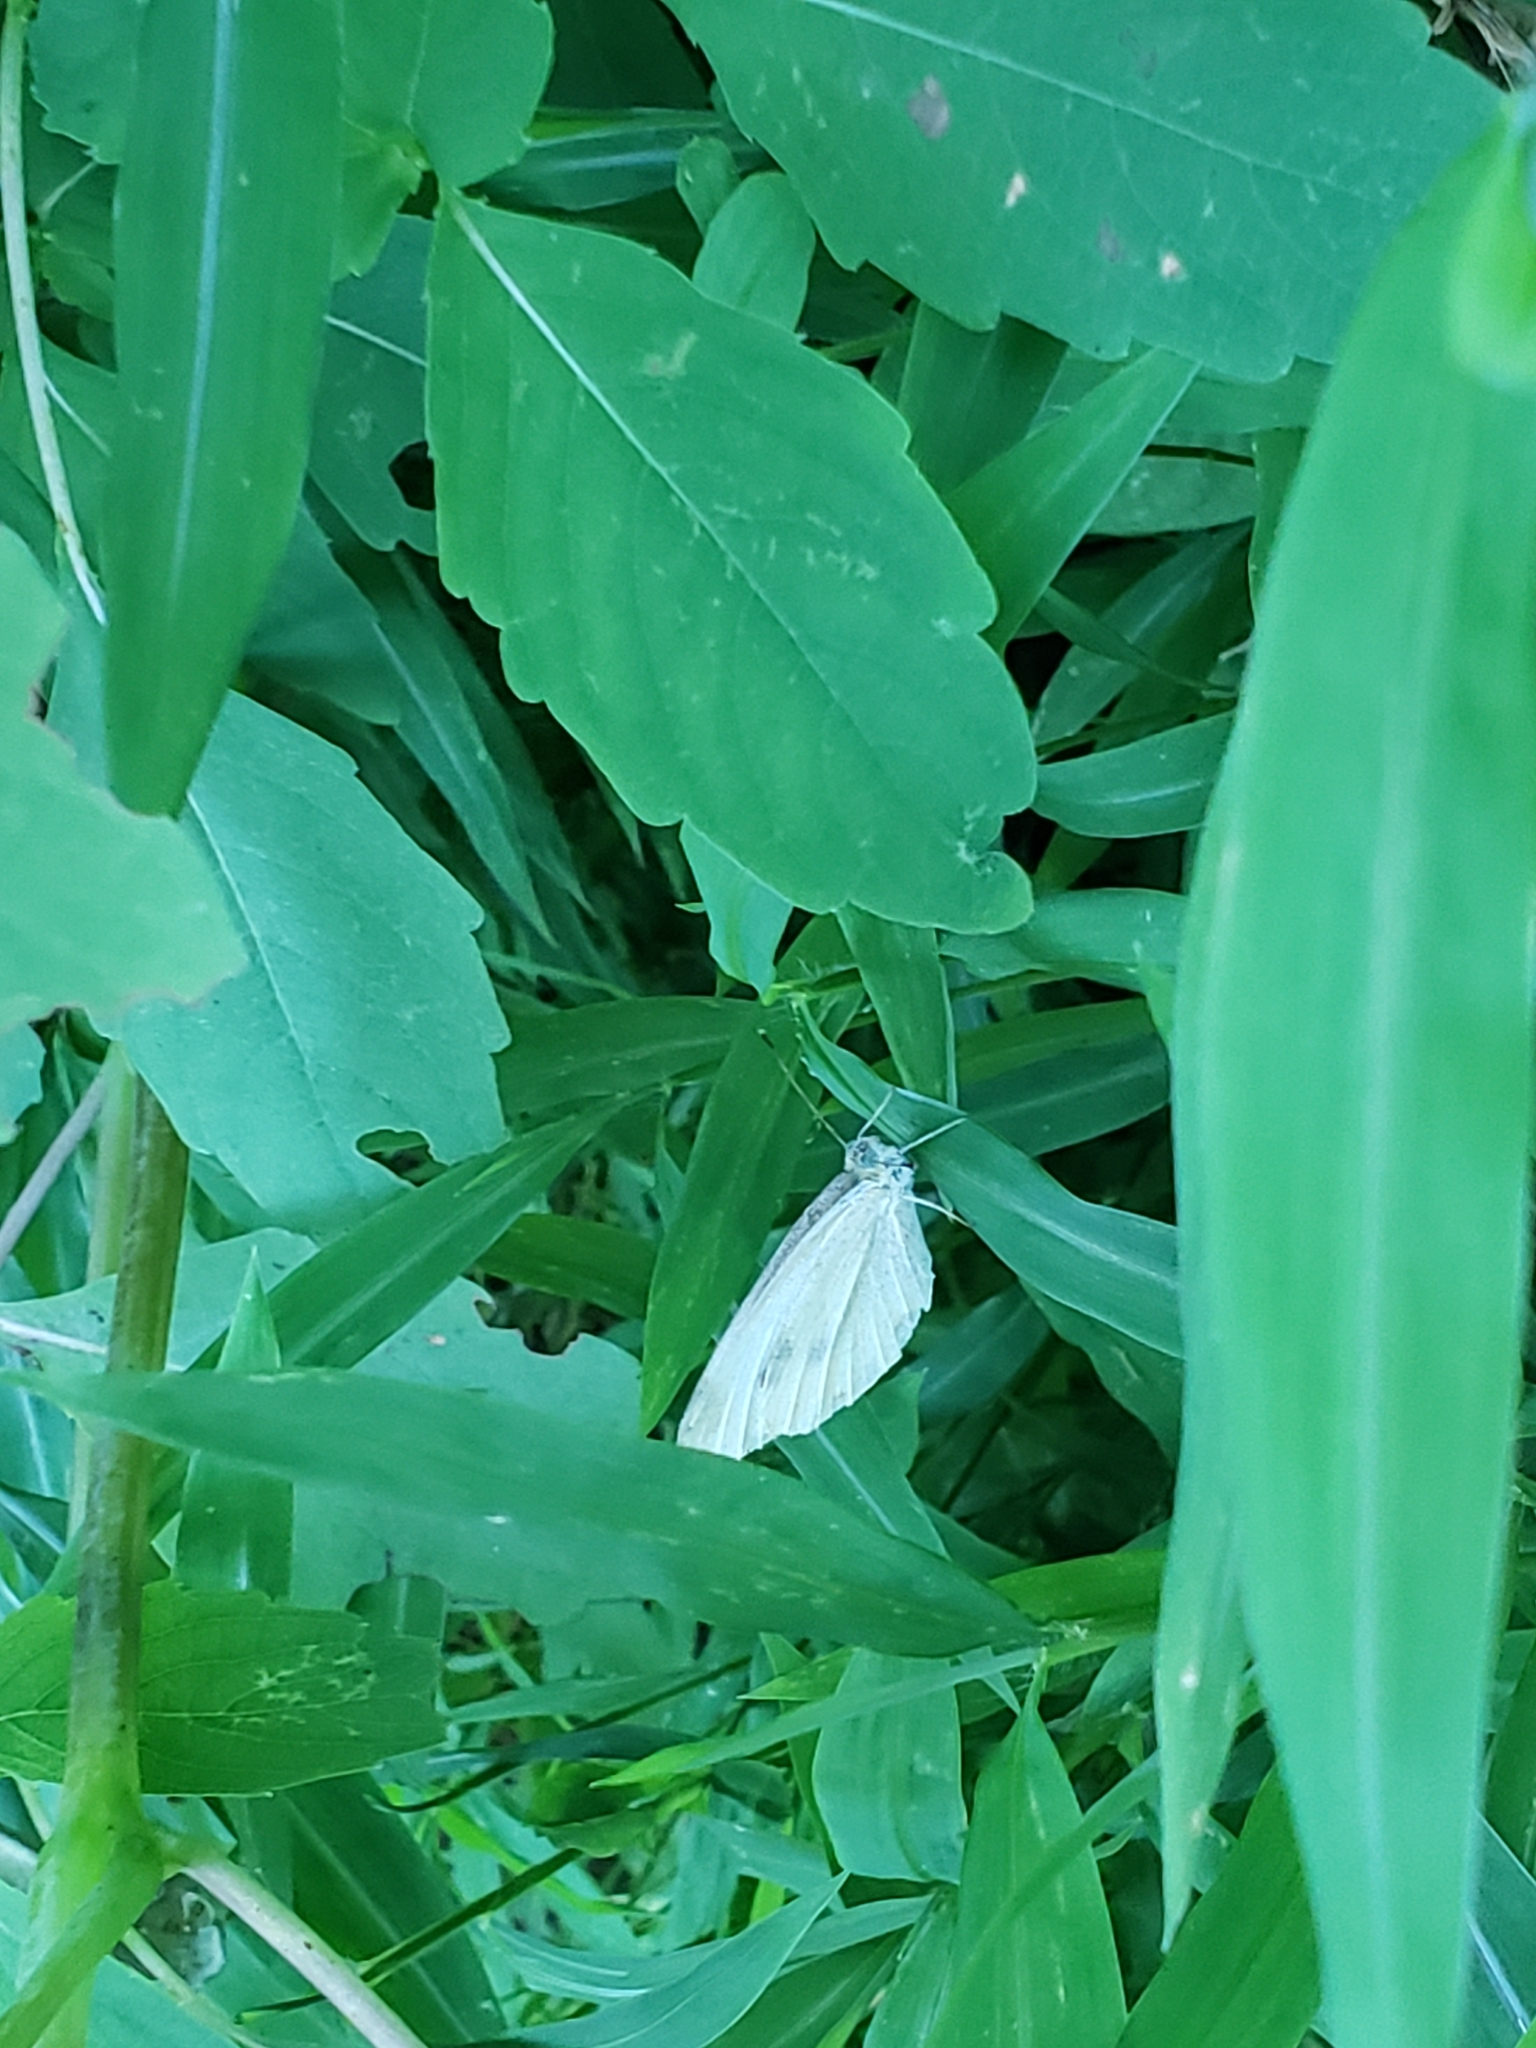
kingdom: Animalia
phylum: Arthropoda
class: Insecta
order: Lepidoptera
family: Pieridae
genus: Pieris
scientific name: Pieris rapae
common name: Small white
